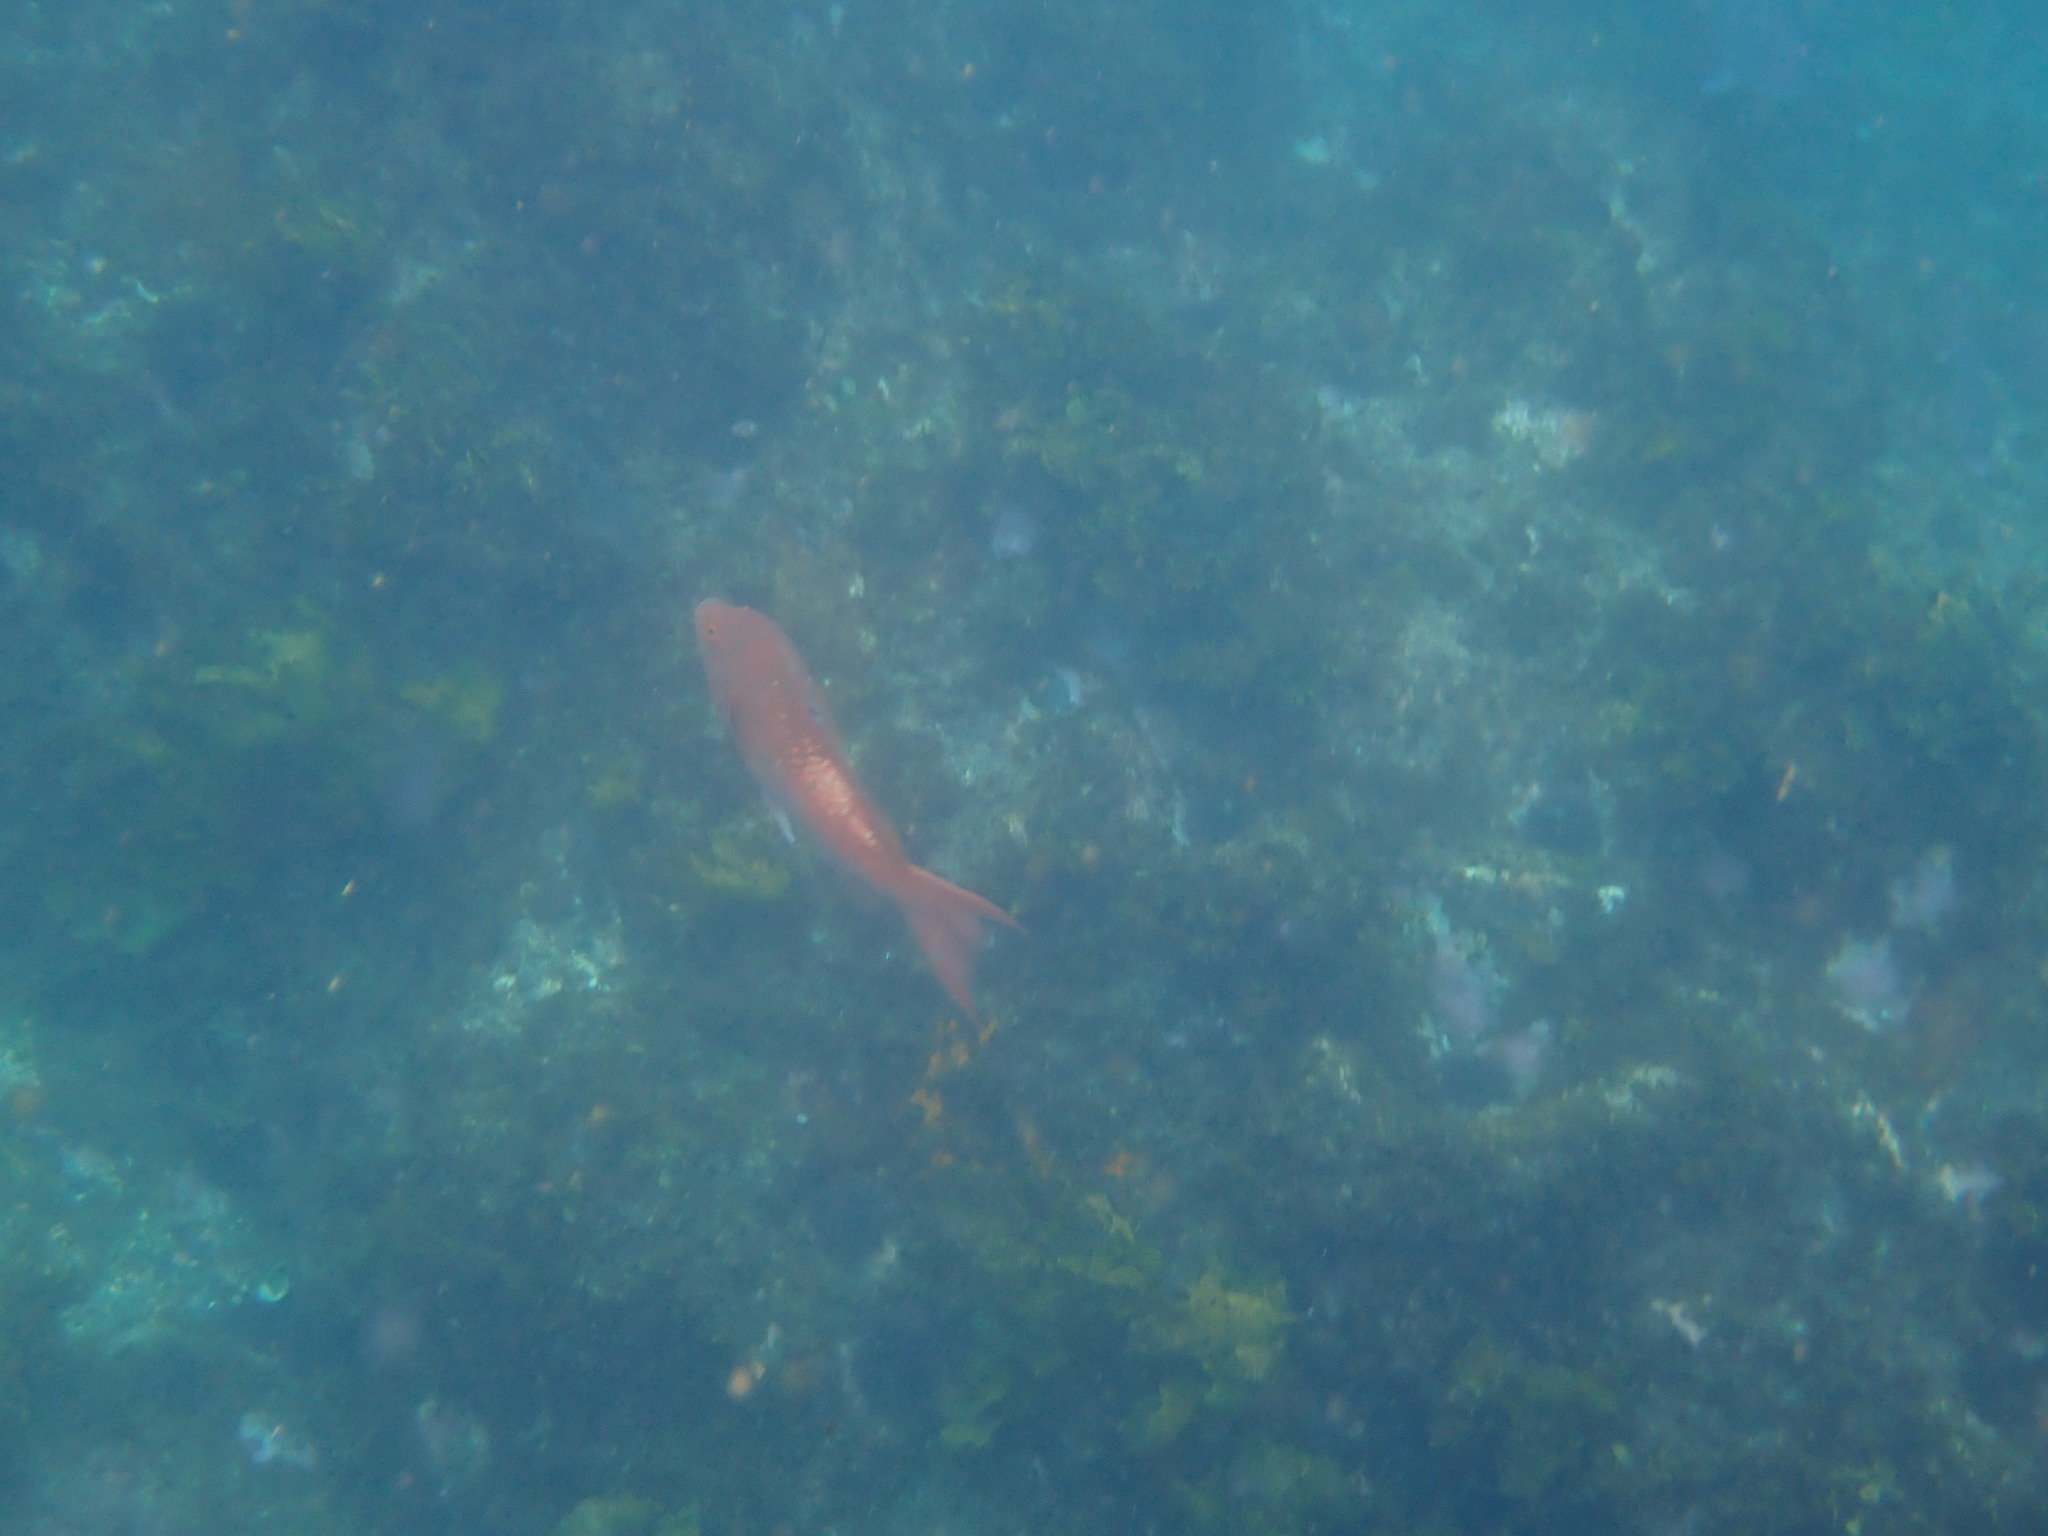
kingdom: Animalia
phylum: Chordata
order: Perciformes
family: Labridae
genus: Bodianus
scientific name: Bodianus unimaculatus
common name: Pigfish
